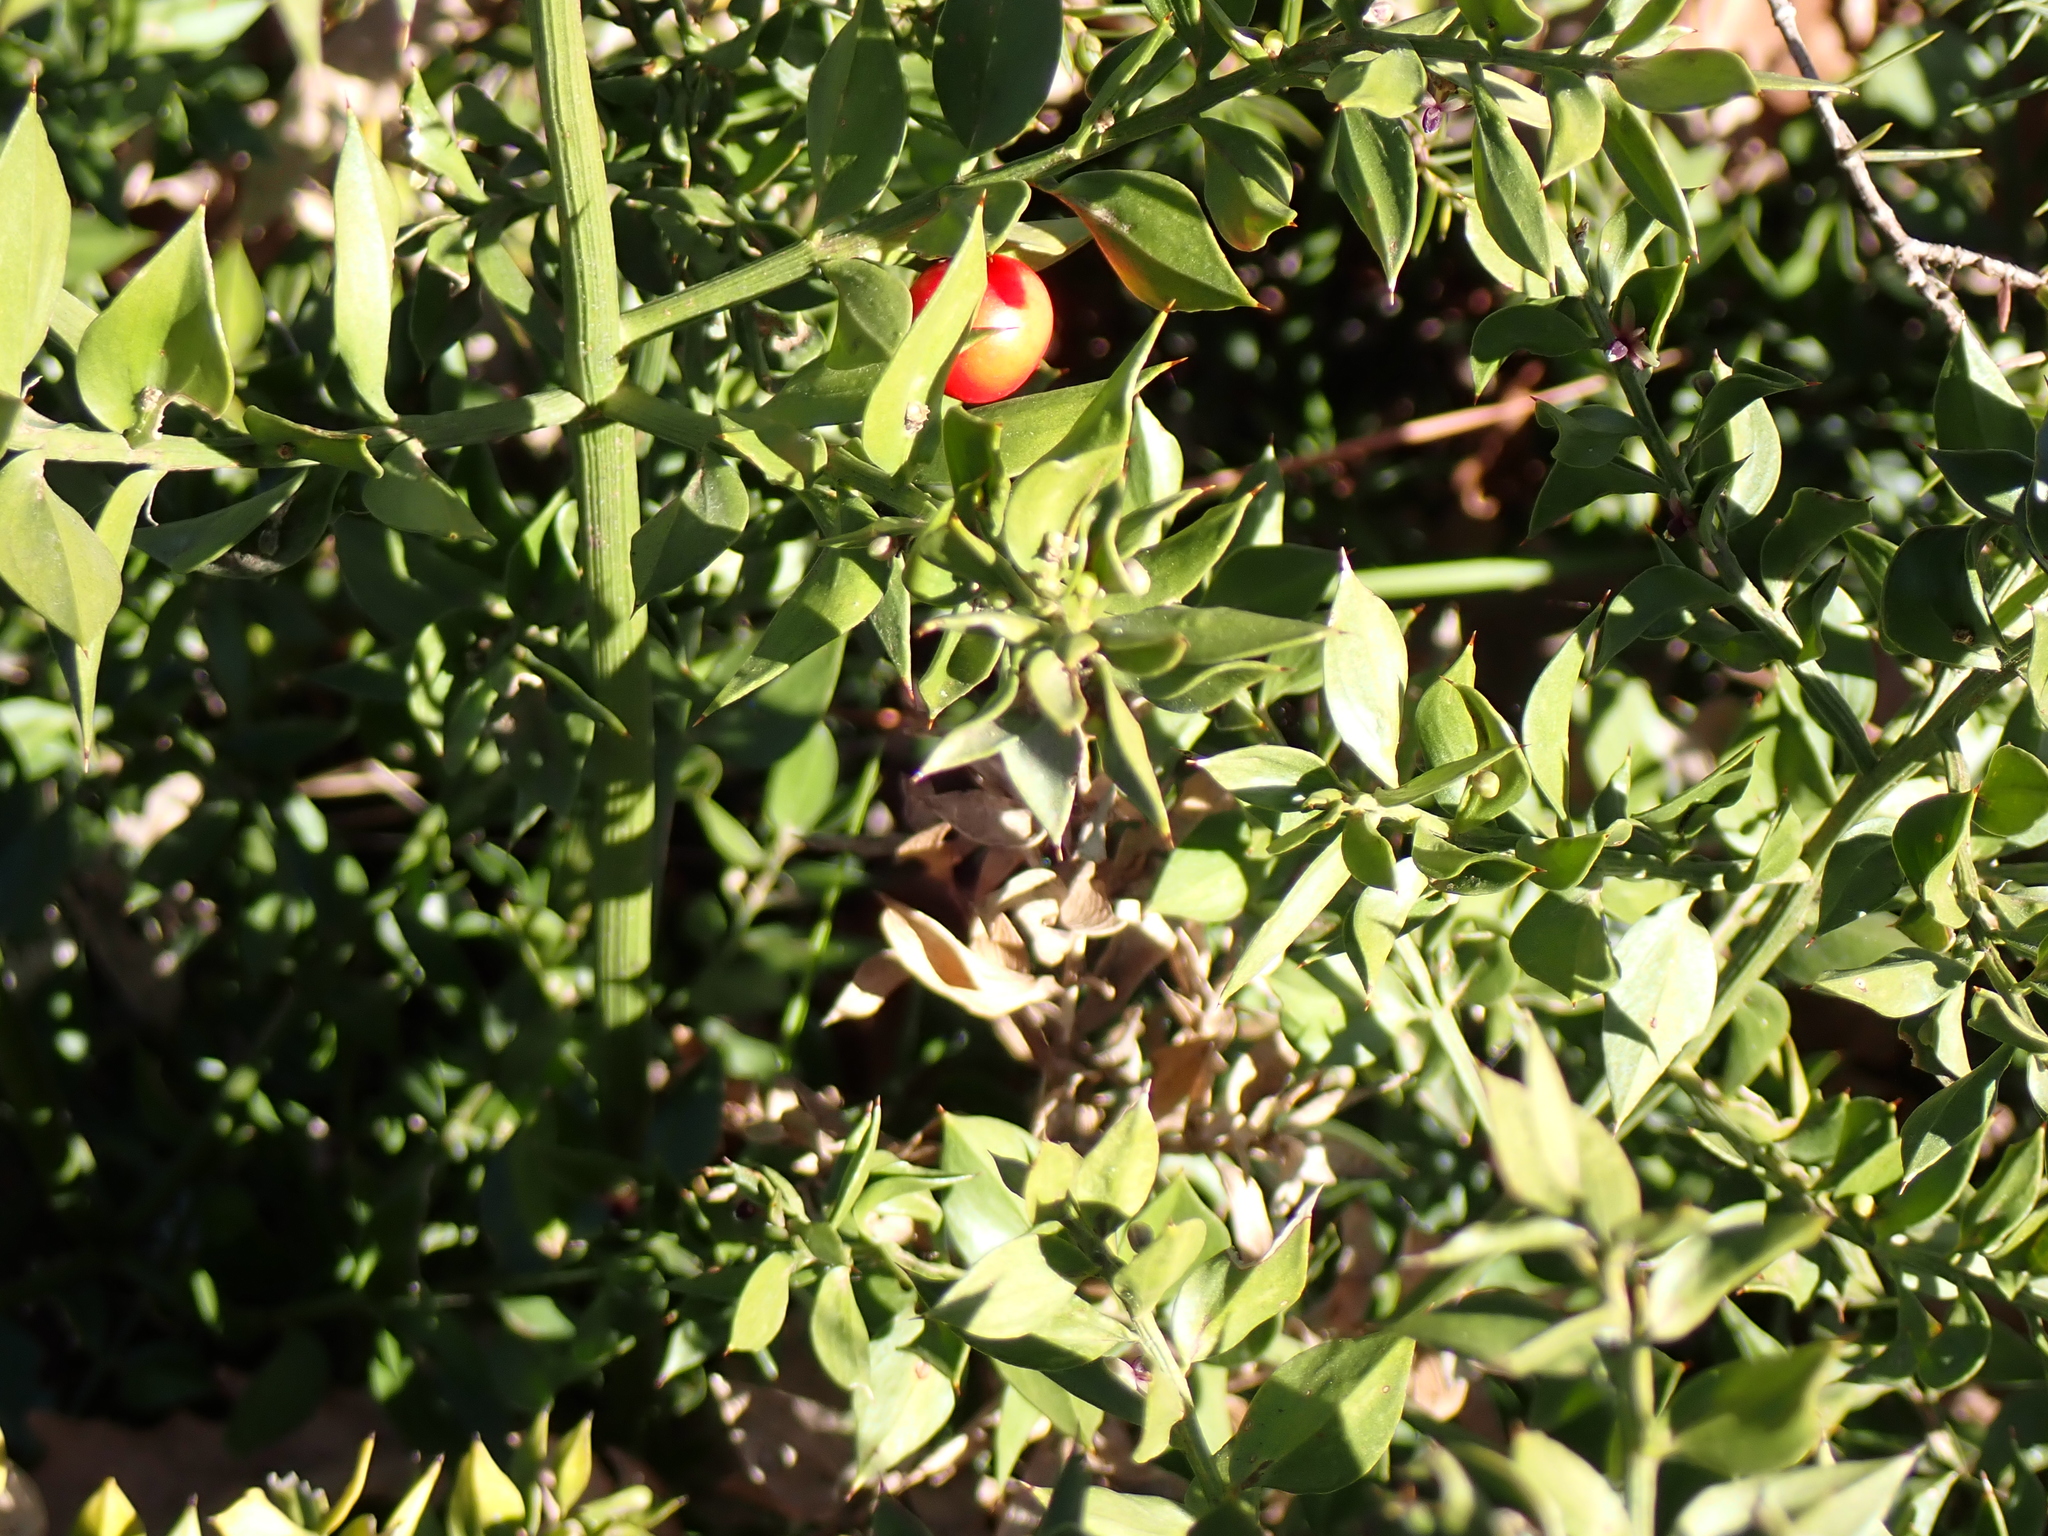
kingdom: Plantae
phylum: Tracheophyta
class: Liliopsida
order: Asparagales
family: Asparagaceae
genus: Ruscus
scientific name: Ruscus aculeatus
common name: Butcher's-broom
